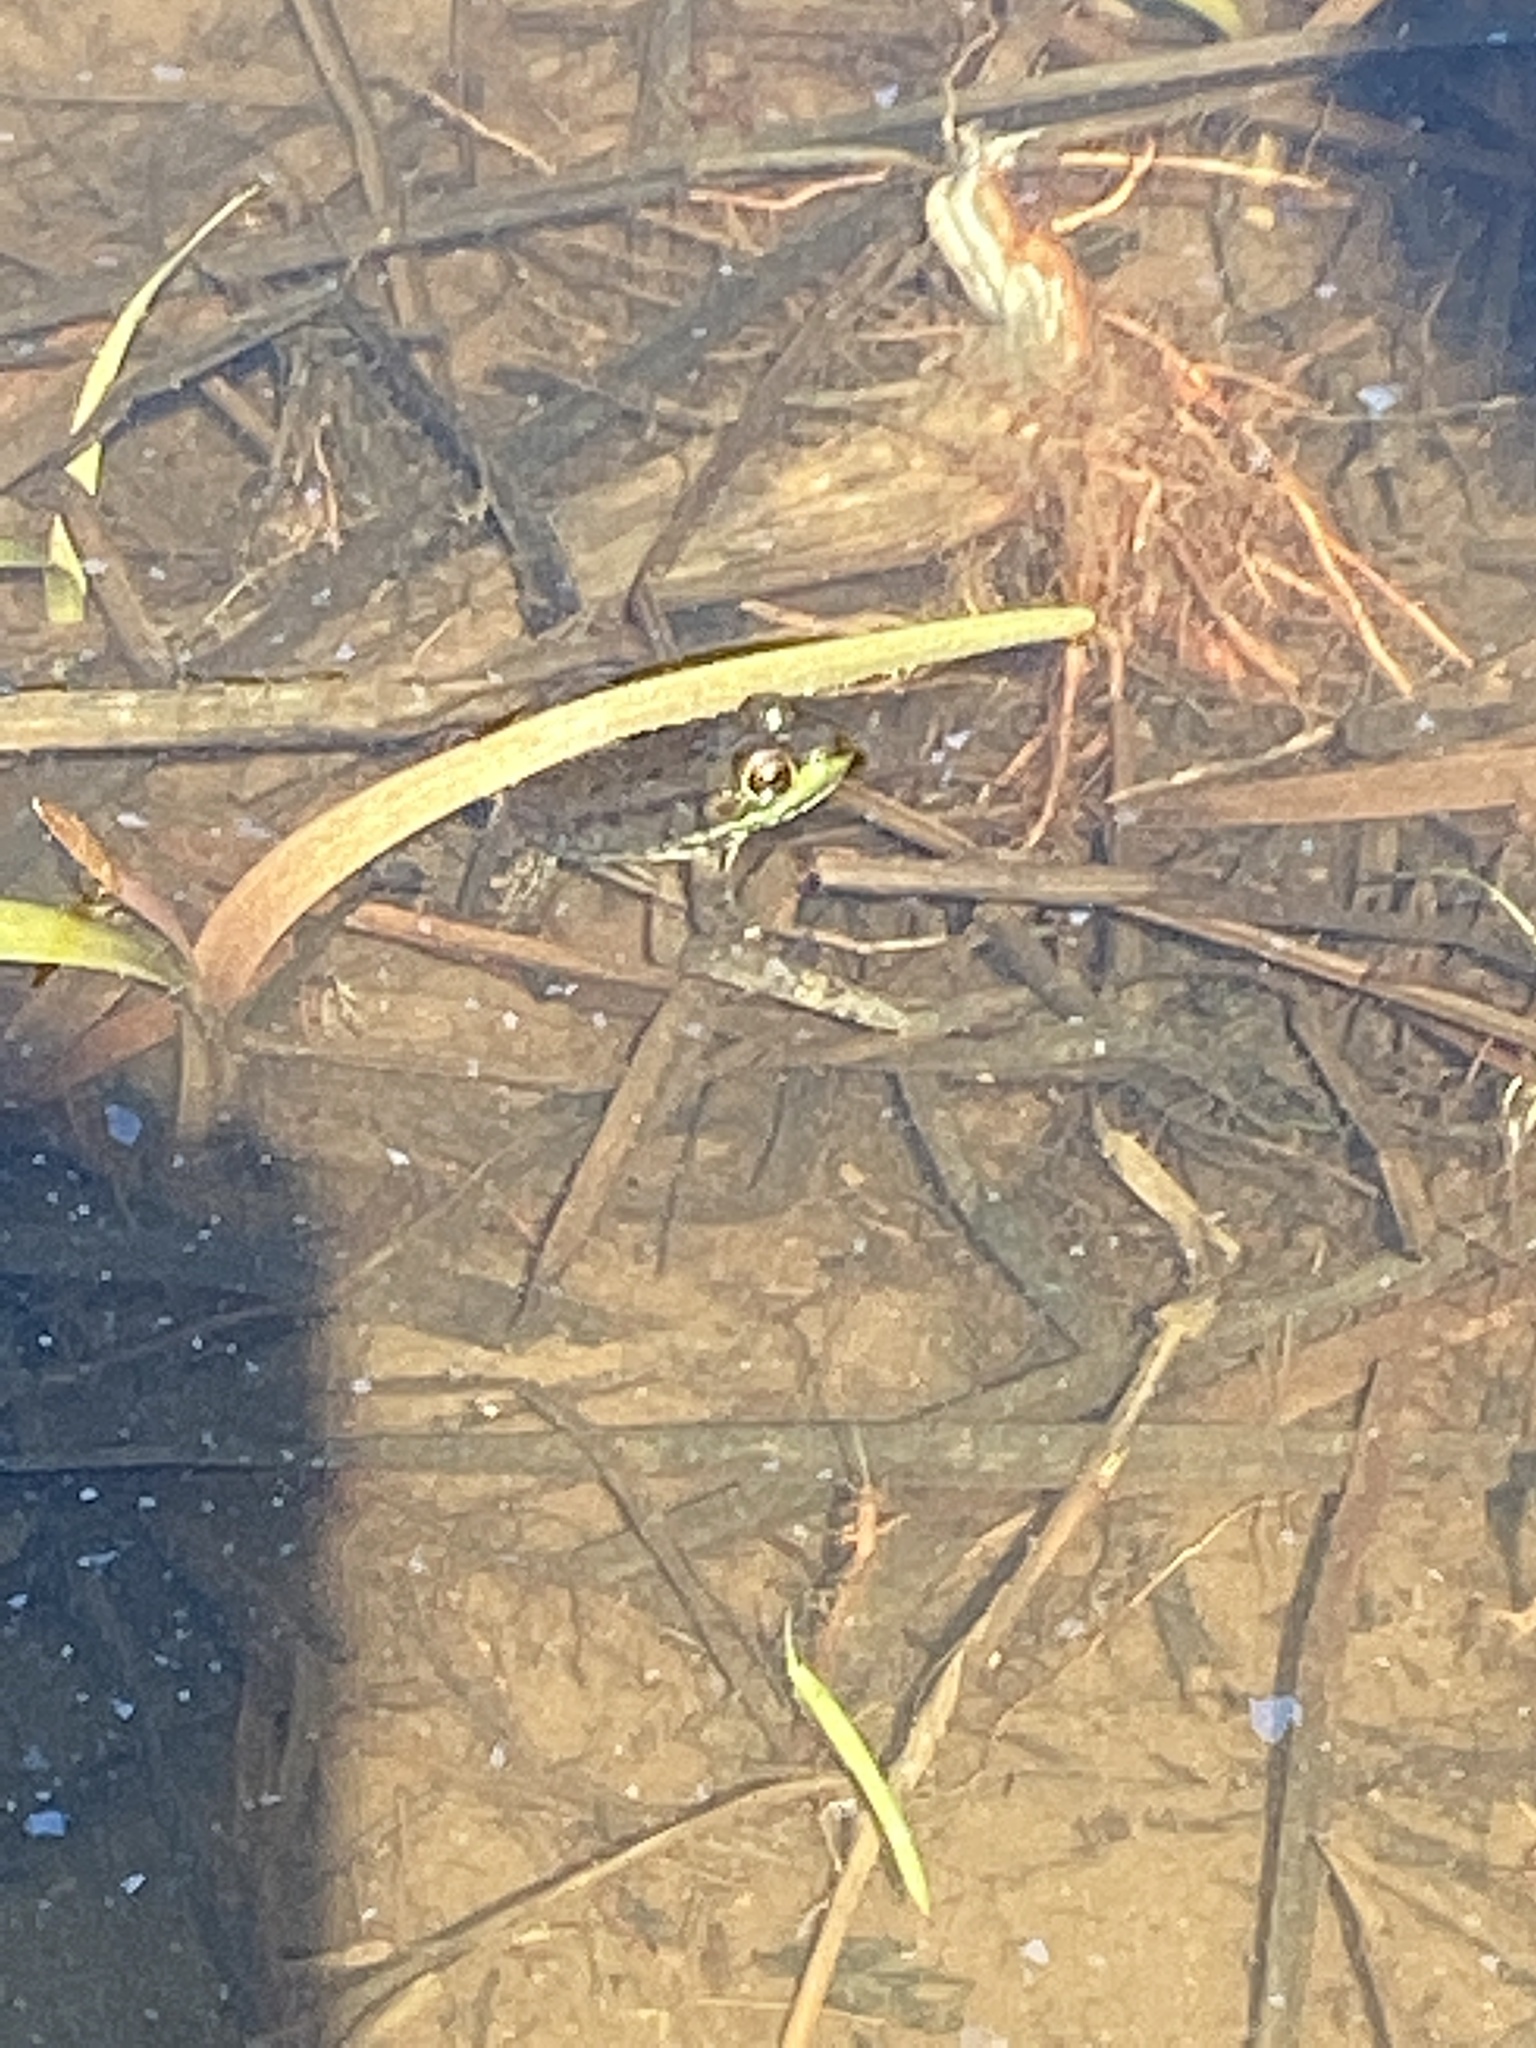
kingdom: Animalia
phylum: Chordata
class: Amphibia
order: Anura
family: Ranidae
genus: Lithobates
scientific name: Lithobates clamitans
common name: Green frog
